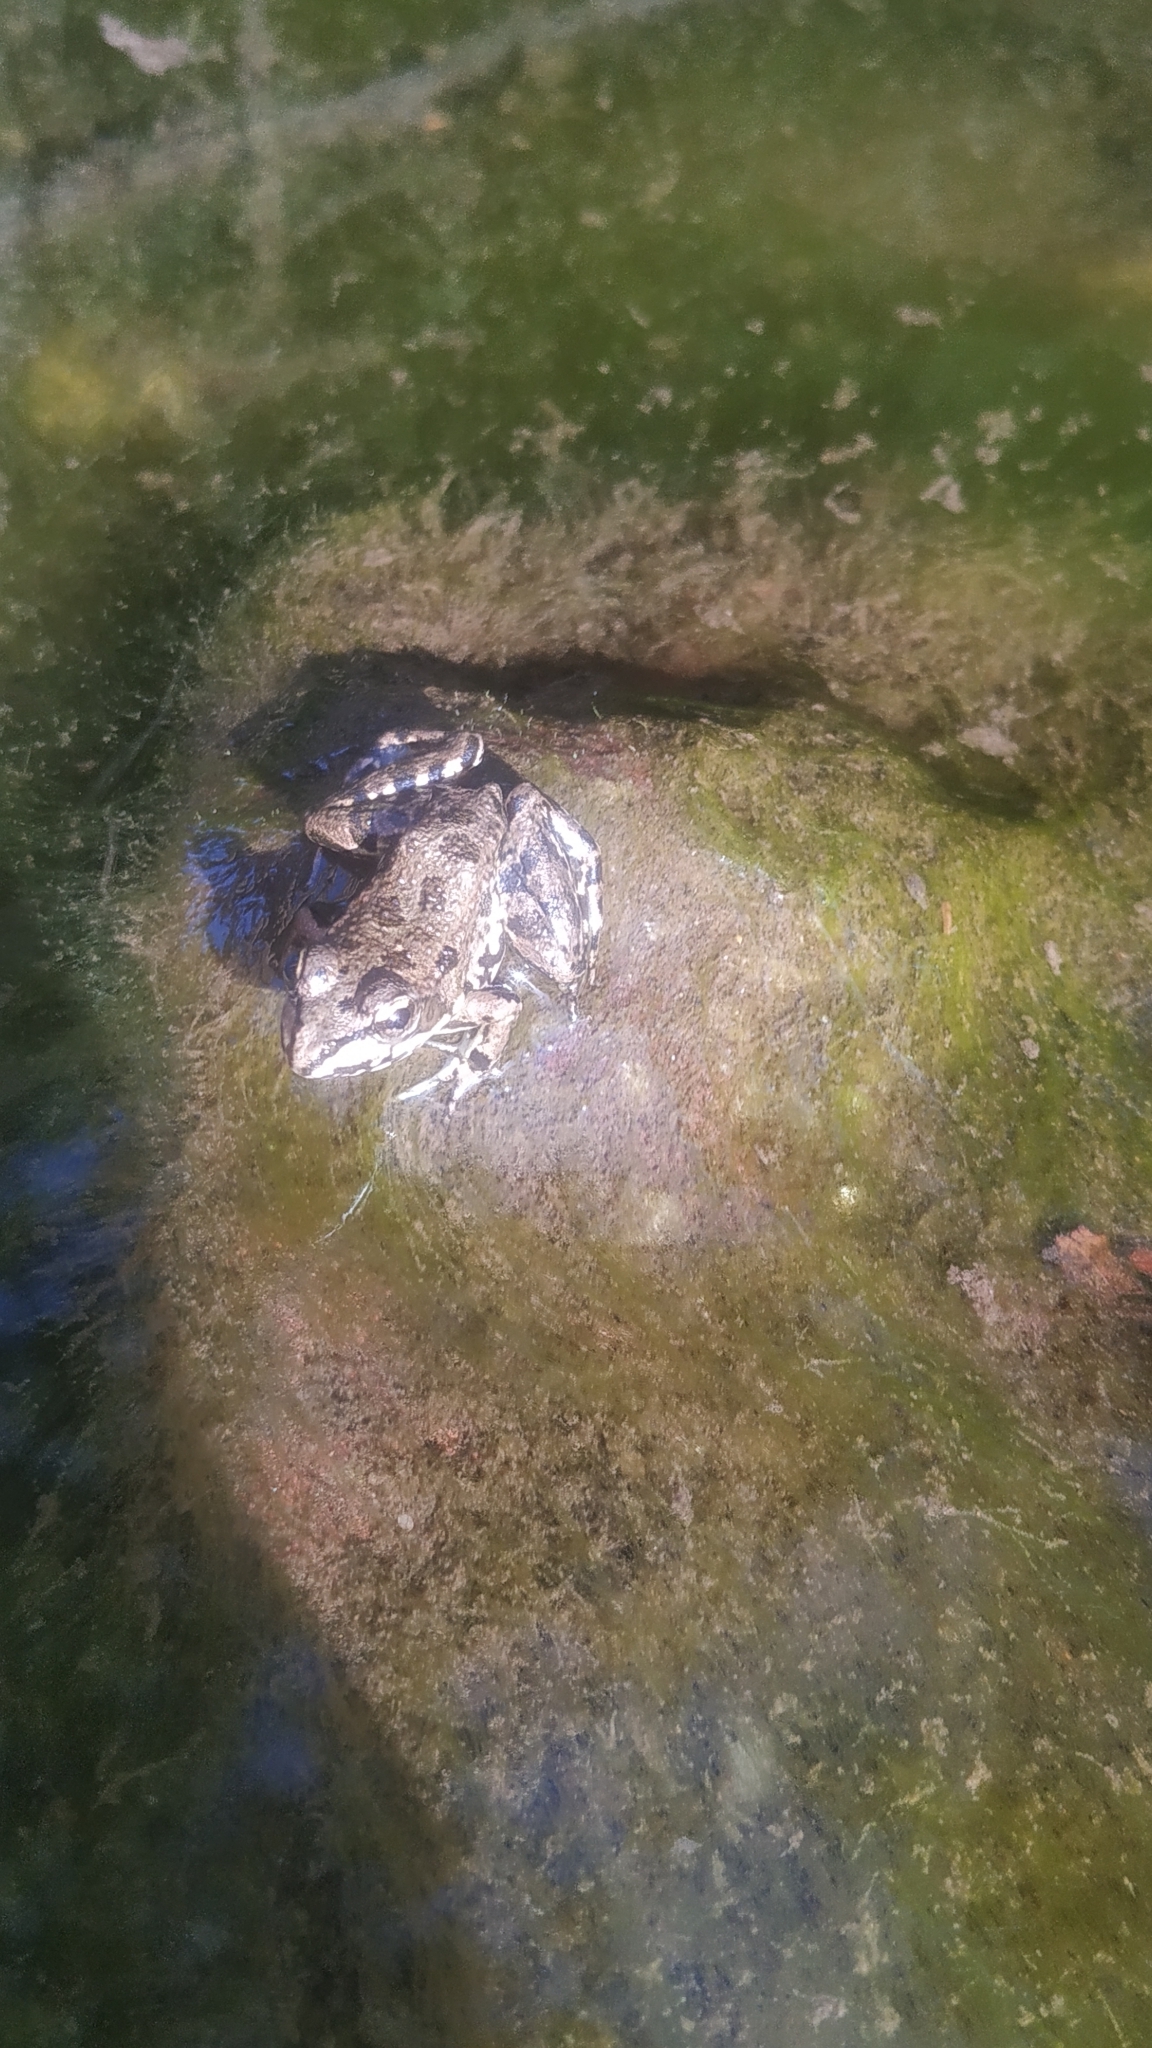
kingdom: Animalia
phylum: Chordata
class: Amphibia
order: Anura
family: Ranidae
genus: Pelophylax
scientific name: Pelophylax perezi
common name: Perez's frog
